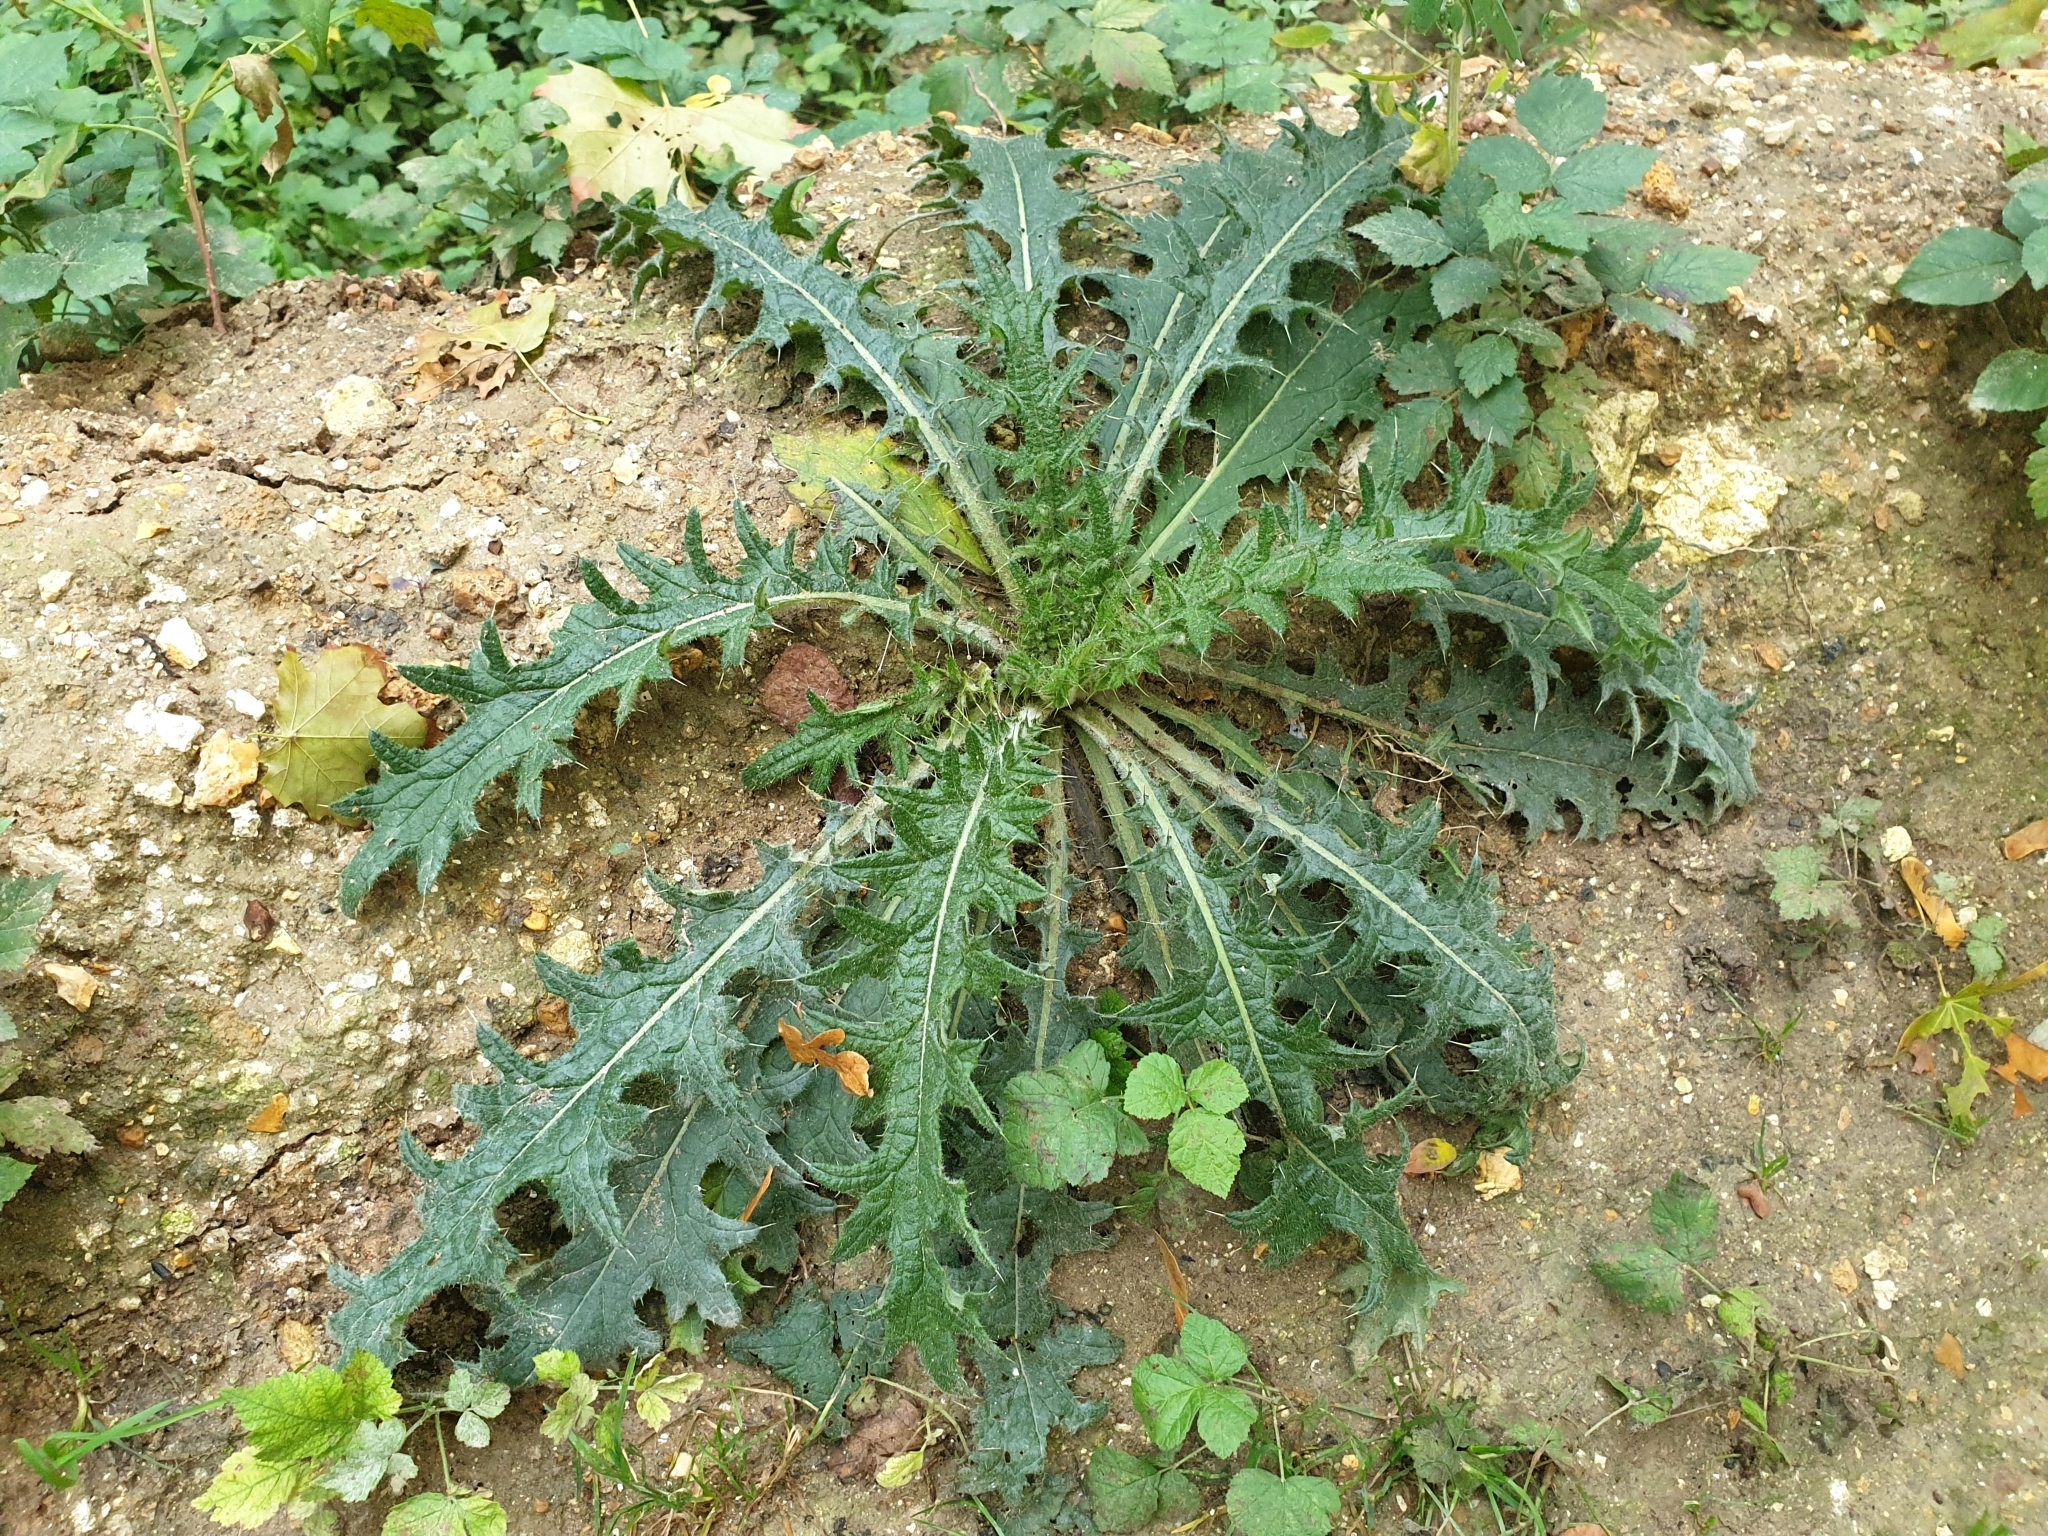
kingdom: Plantae
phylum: Tracheophyta
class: Magnoliopsida
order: Asterales
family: Asteraceae
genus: Cirsium
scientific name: Cirsium vulgare
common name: Bull thistle
